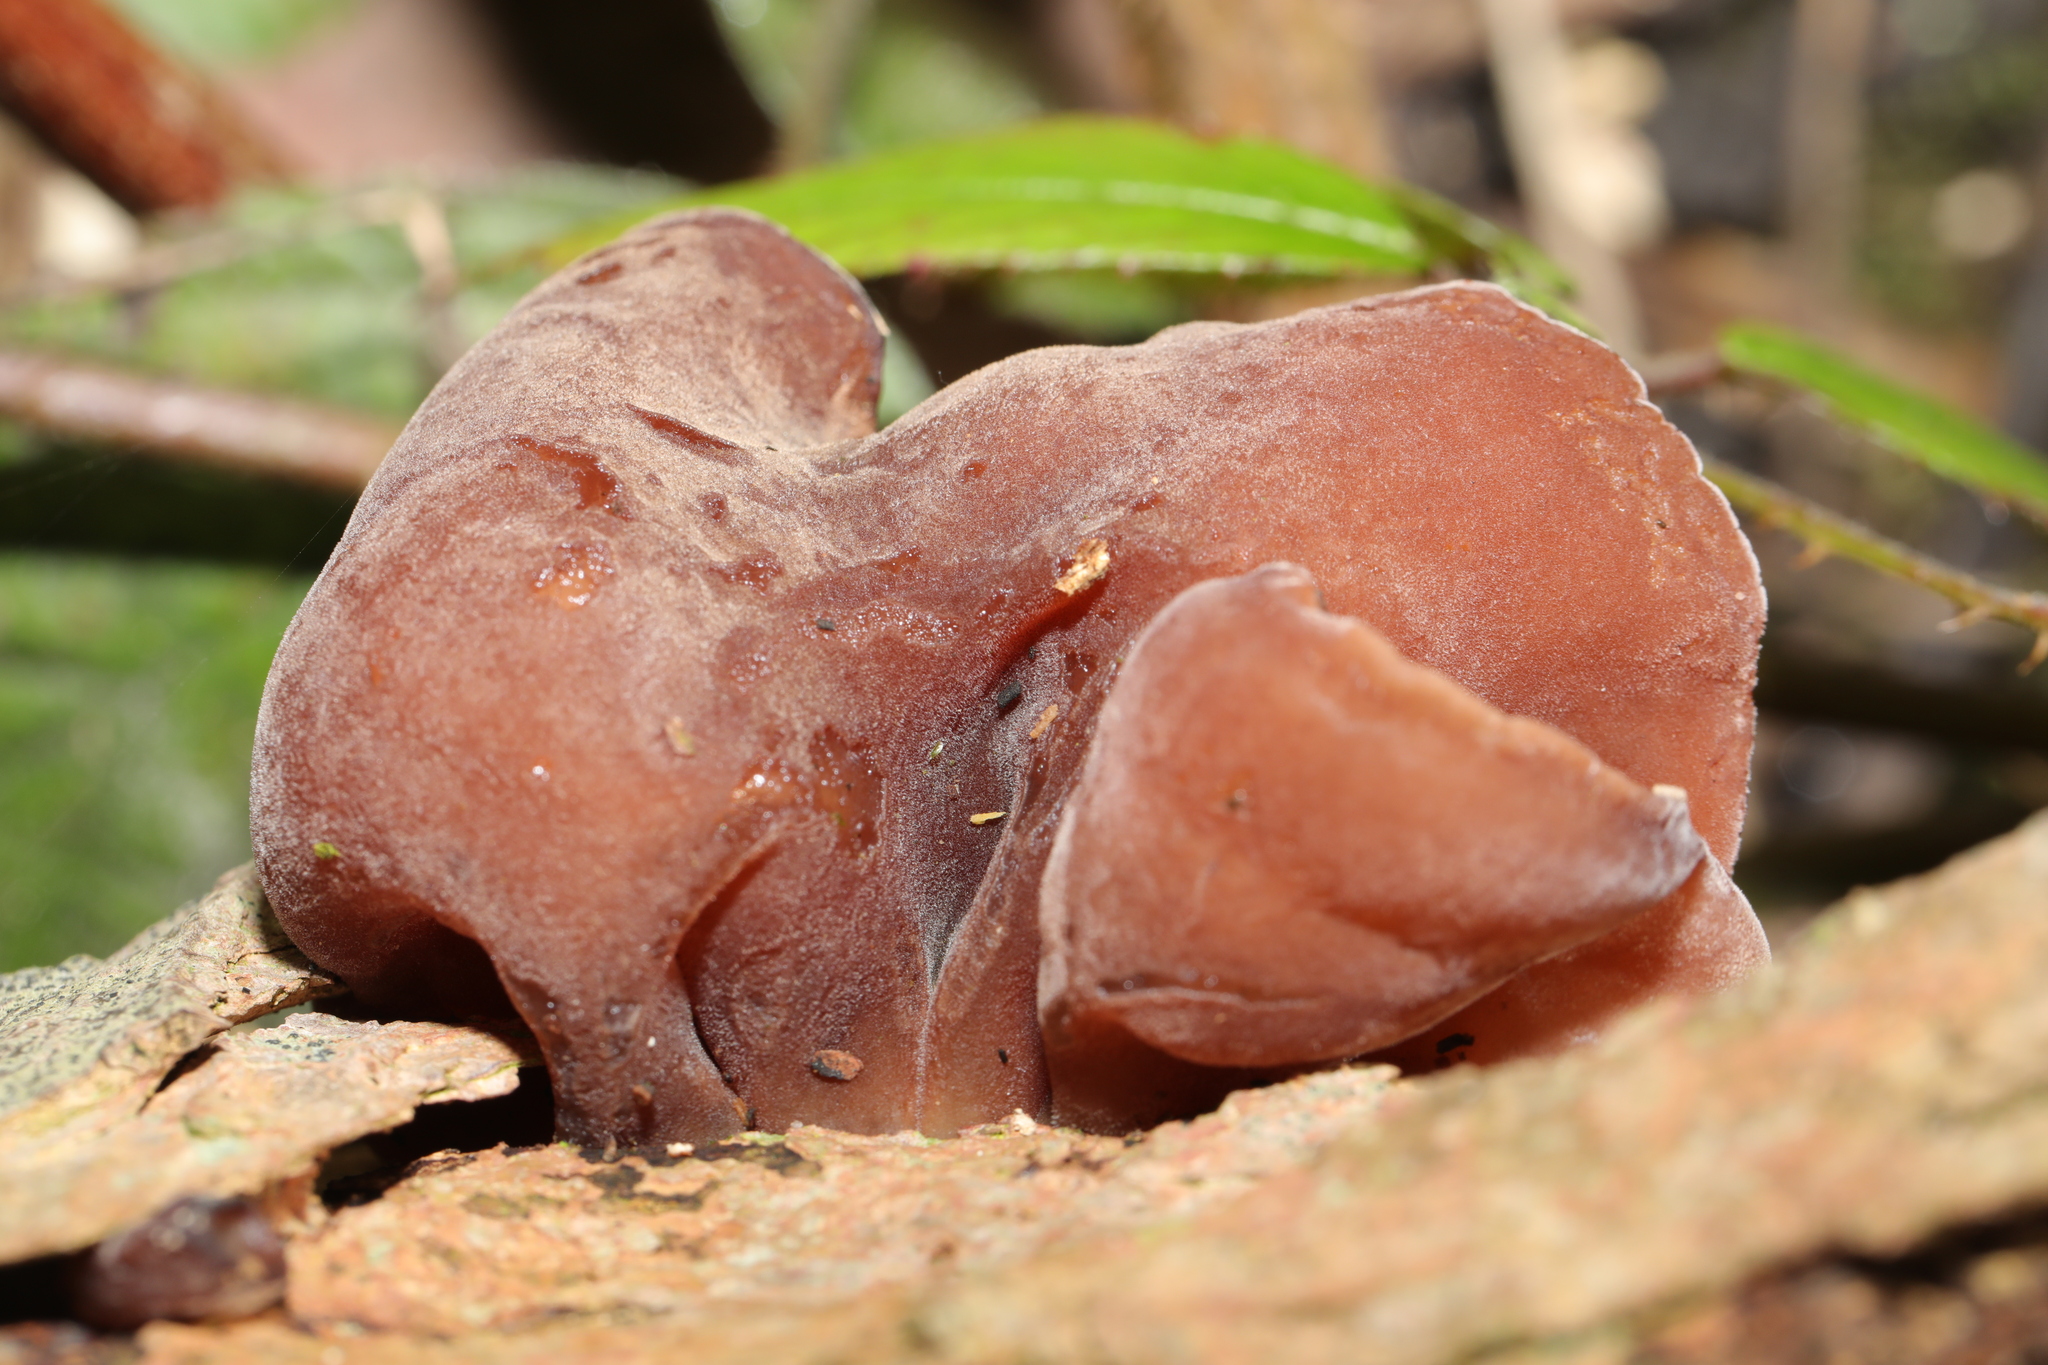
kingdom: Fungi
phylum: Basidiomycota
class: Agaricomycetes
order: Auriculariales
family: Auriculariaceae
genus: Auricularia
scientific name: Auricularia auricula-judae
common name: Jelly ear
